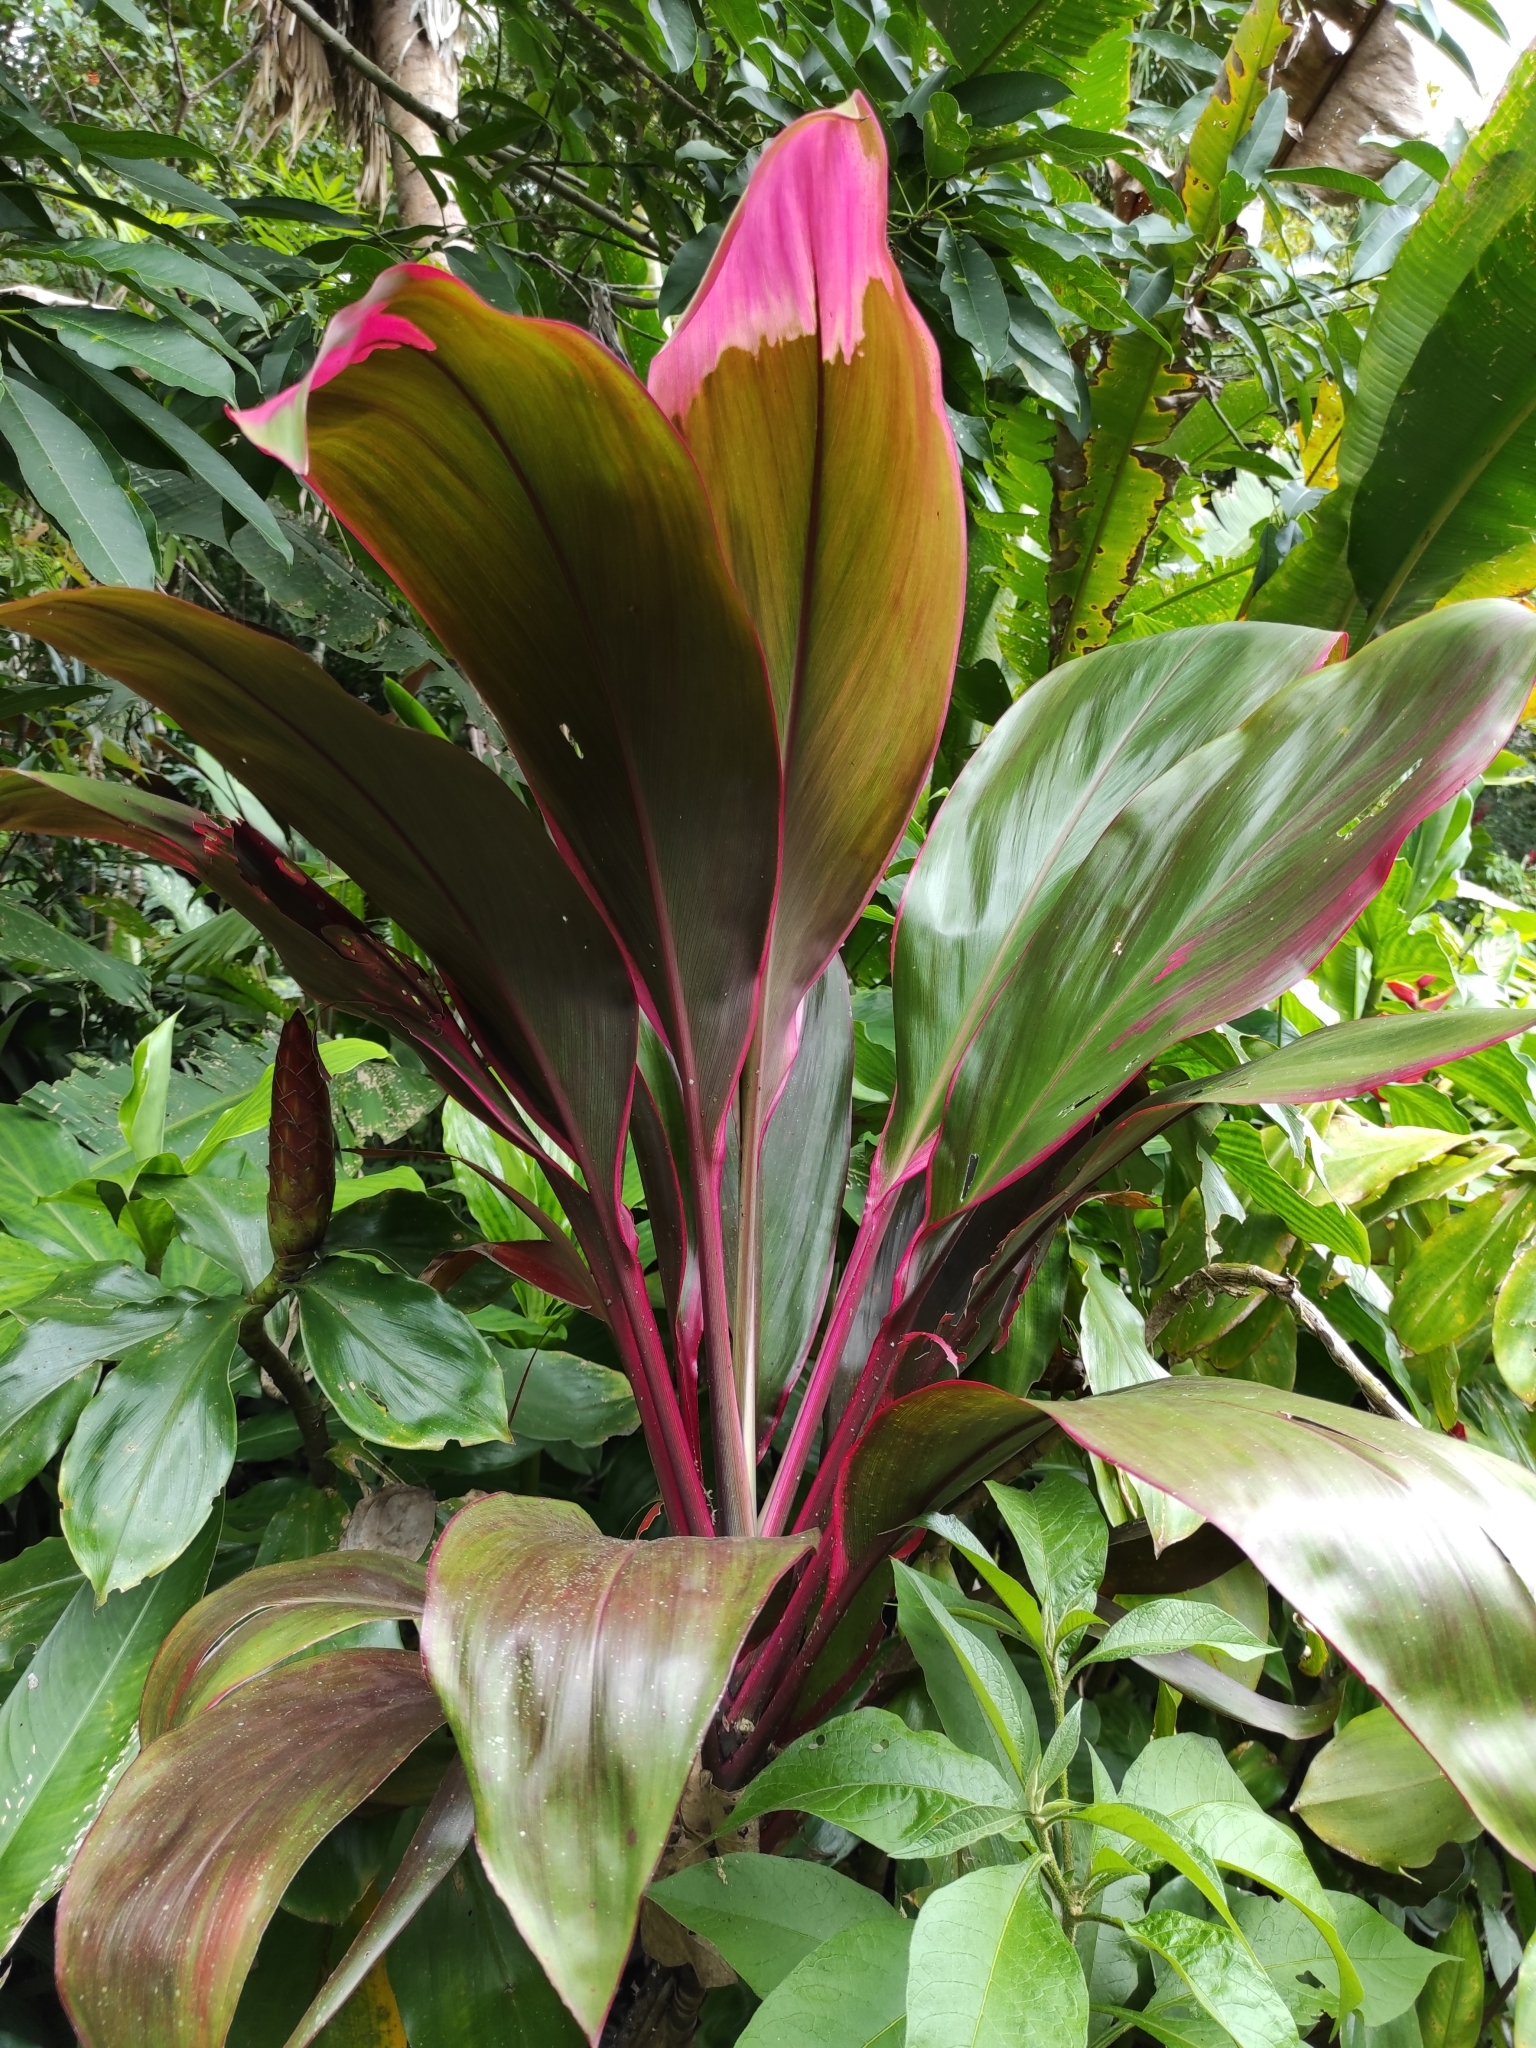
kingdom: Plantae
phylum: Tracheophyta
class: Liliopsida
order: Asparagales
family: Asparagaceae
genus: Cordyline
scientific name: Cordyline fruticosa
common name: Good-luck-plant
